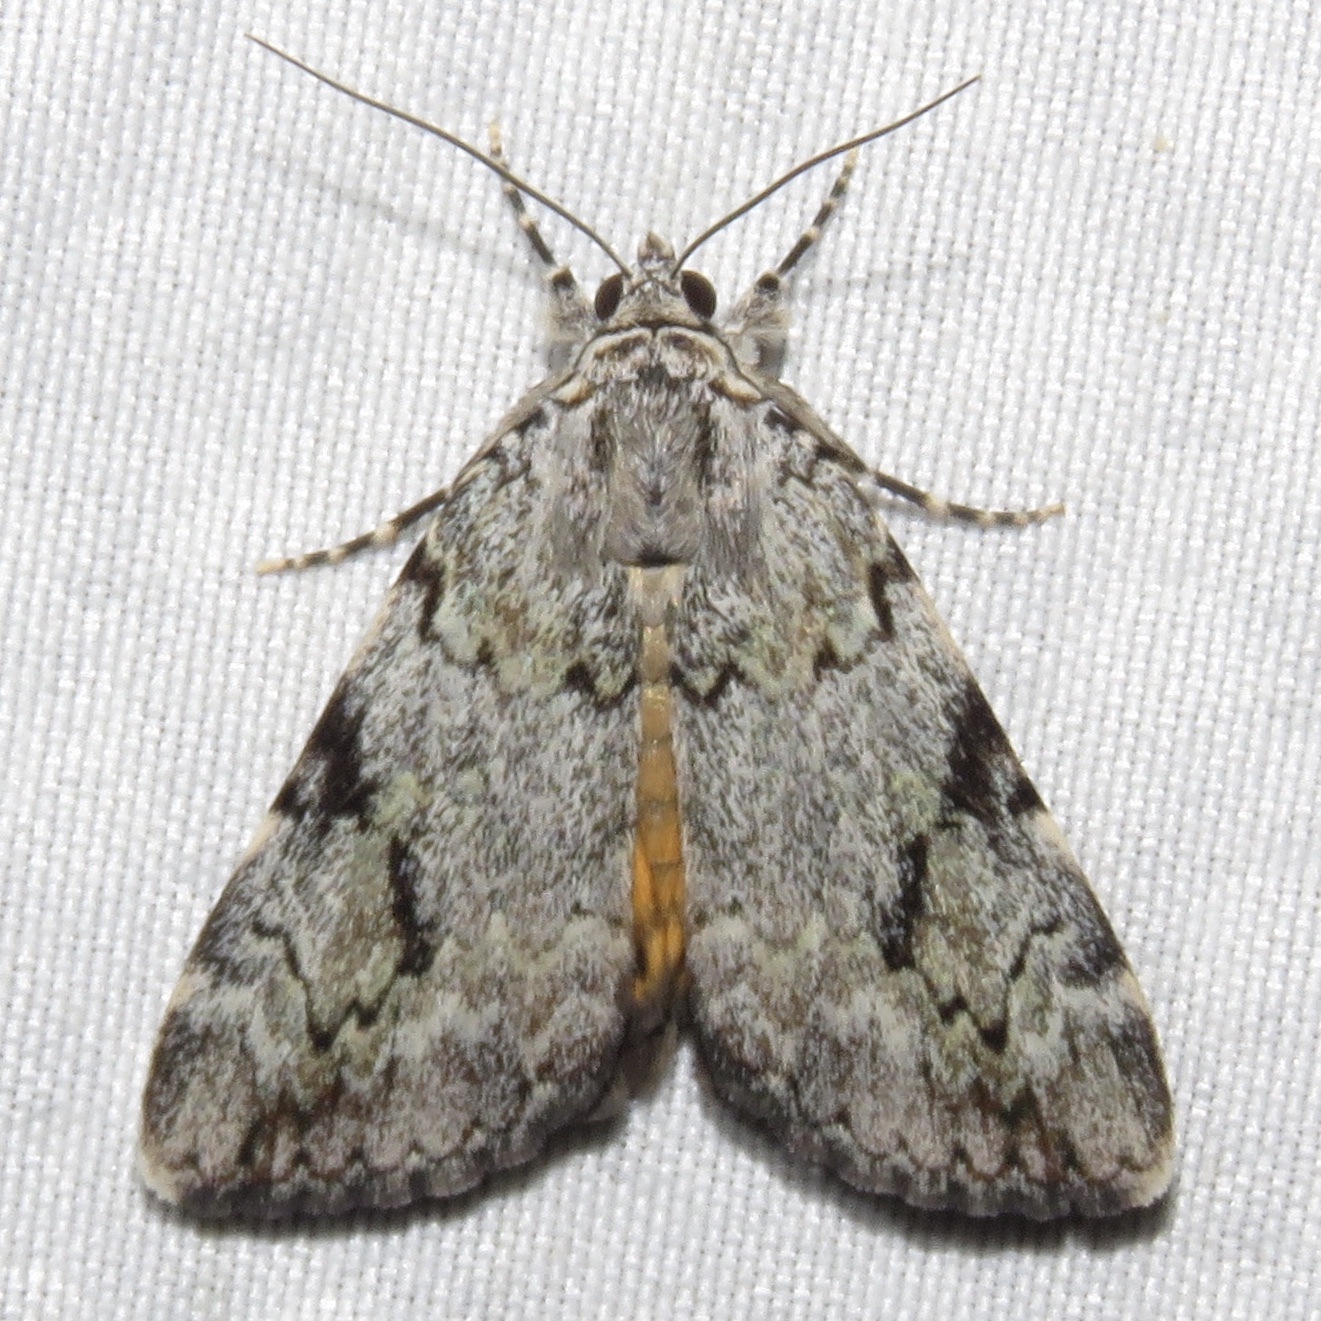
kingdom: Animalia
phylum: Arthropoda
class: Insecta
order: Lepidoptera
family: Erebidae
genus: Catocala
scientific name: Catocala amica
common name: Girlfriend underwing
